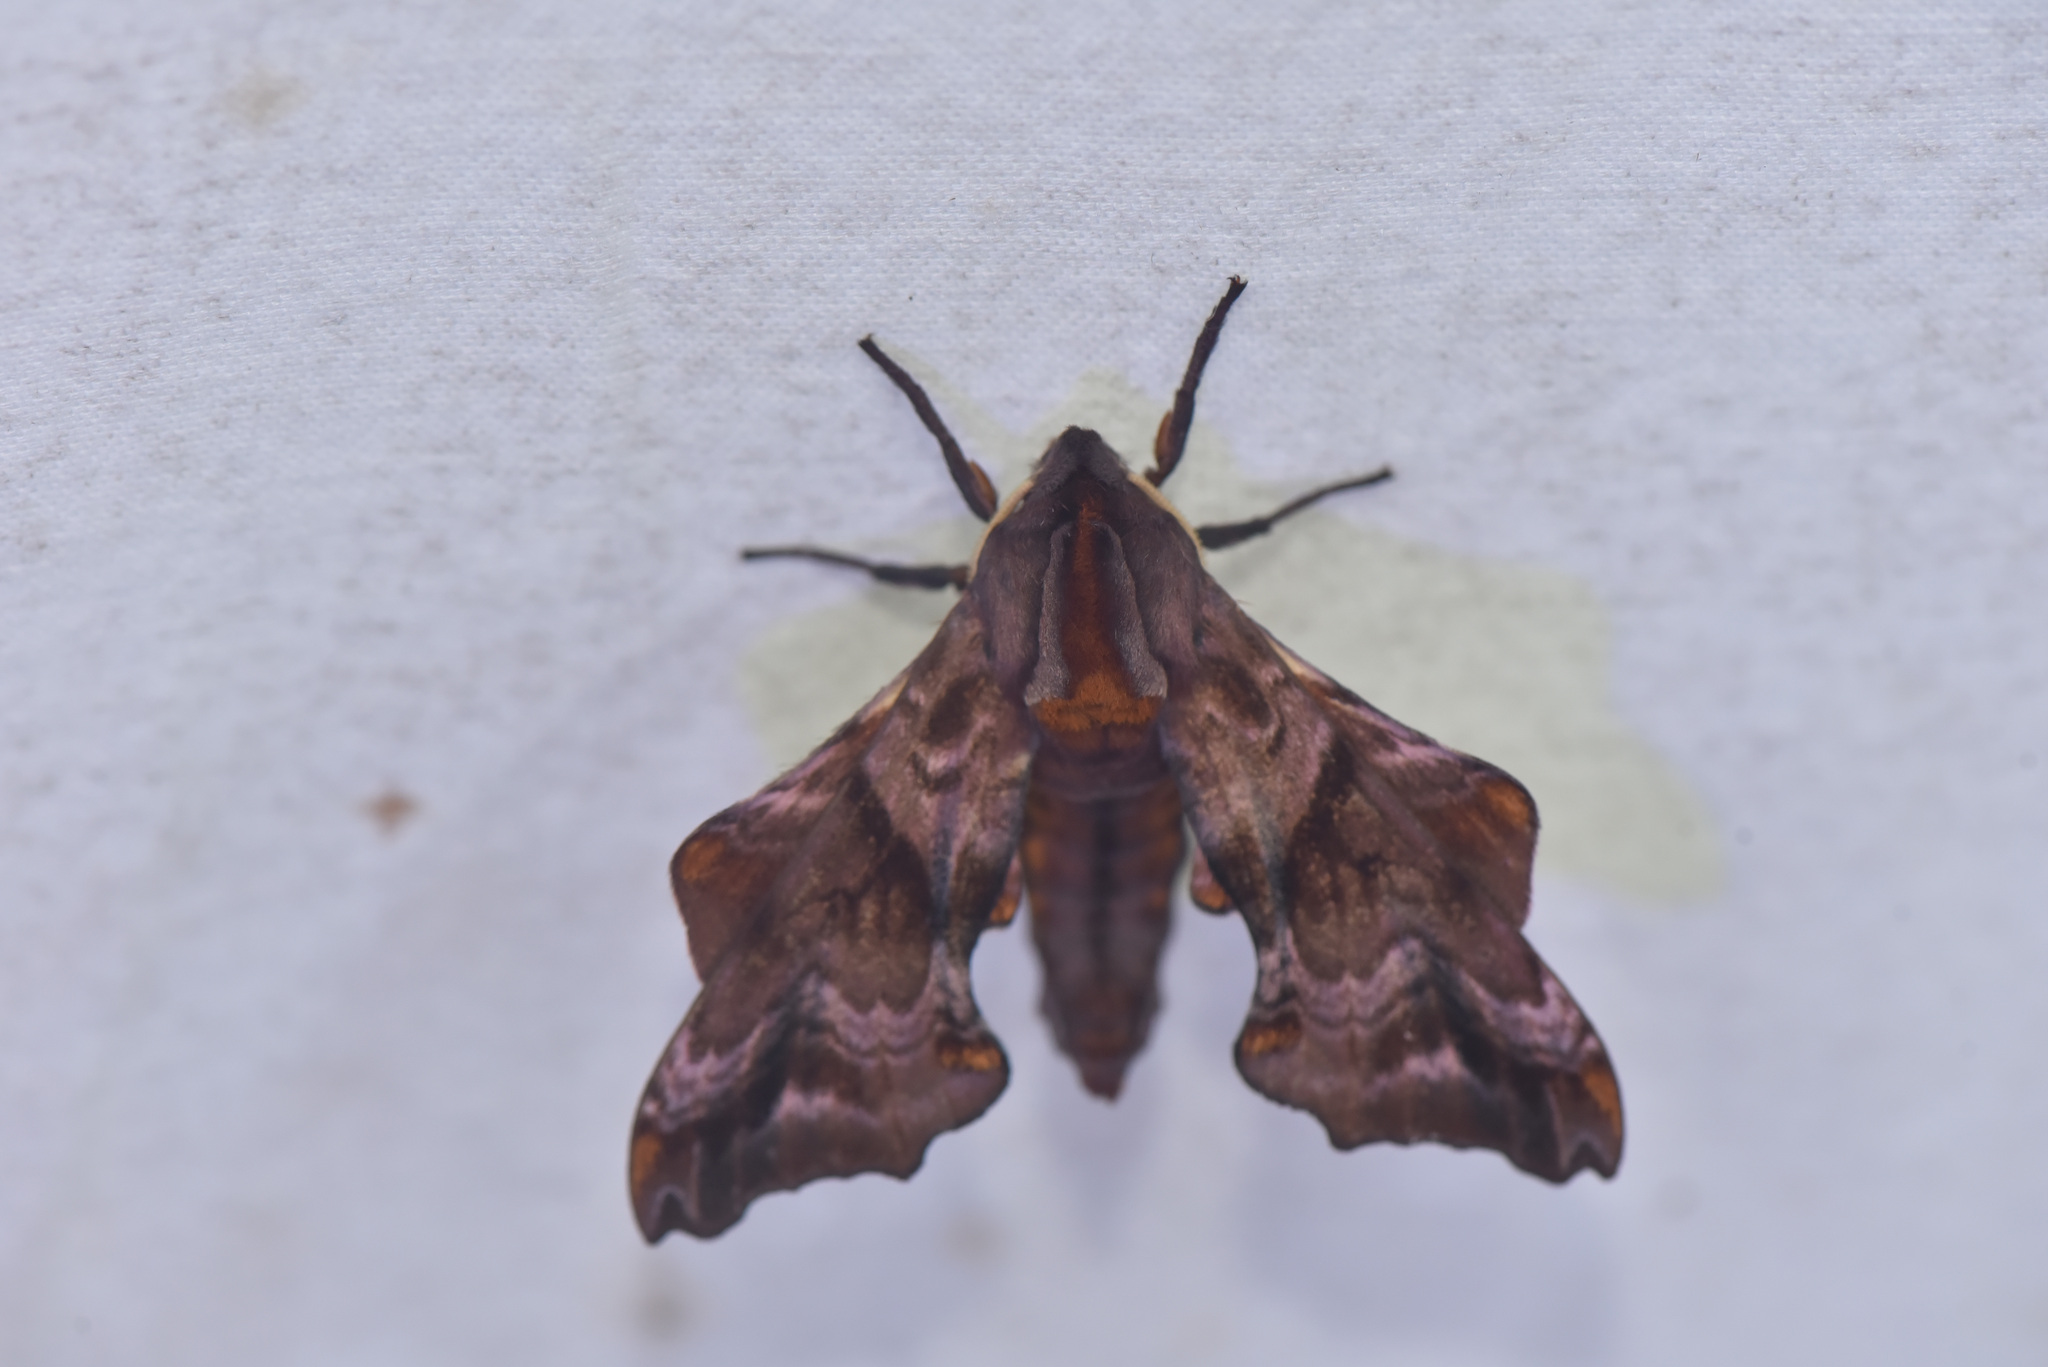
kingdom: Animalia
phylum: Arthropoda
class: Insecta
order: Lepidoptera
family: Sphingidae
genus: Paonias
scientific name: Paonias myops
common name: Small-eyed sphinx
